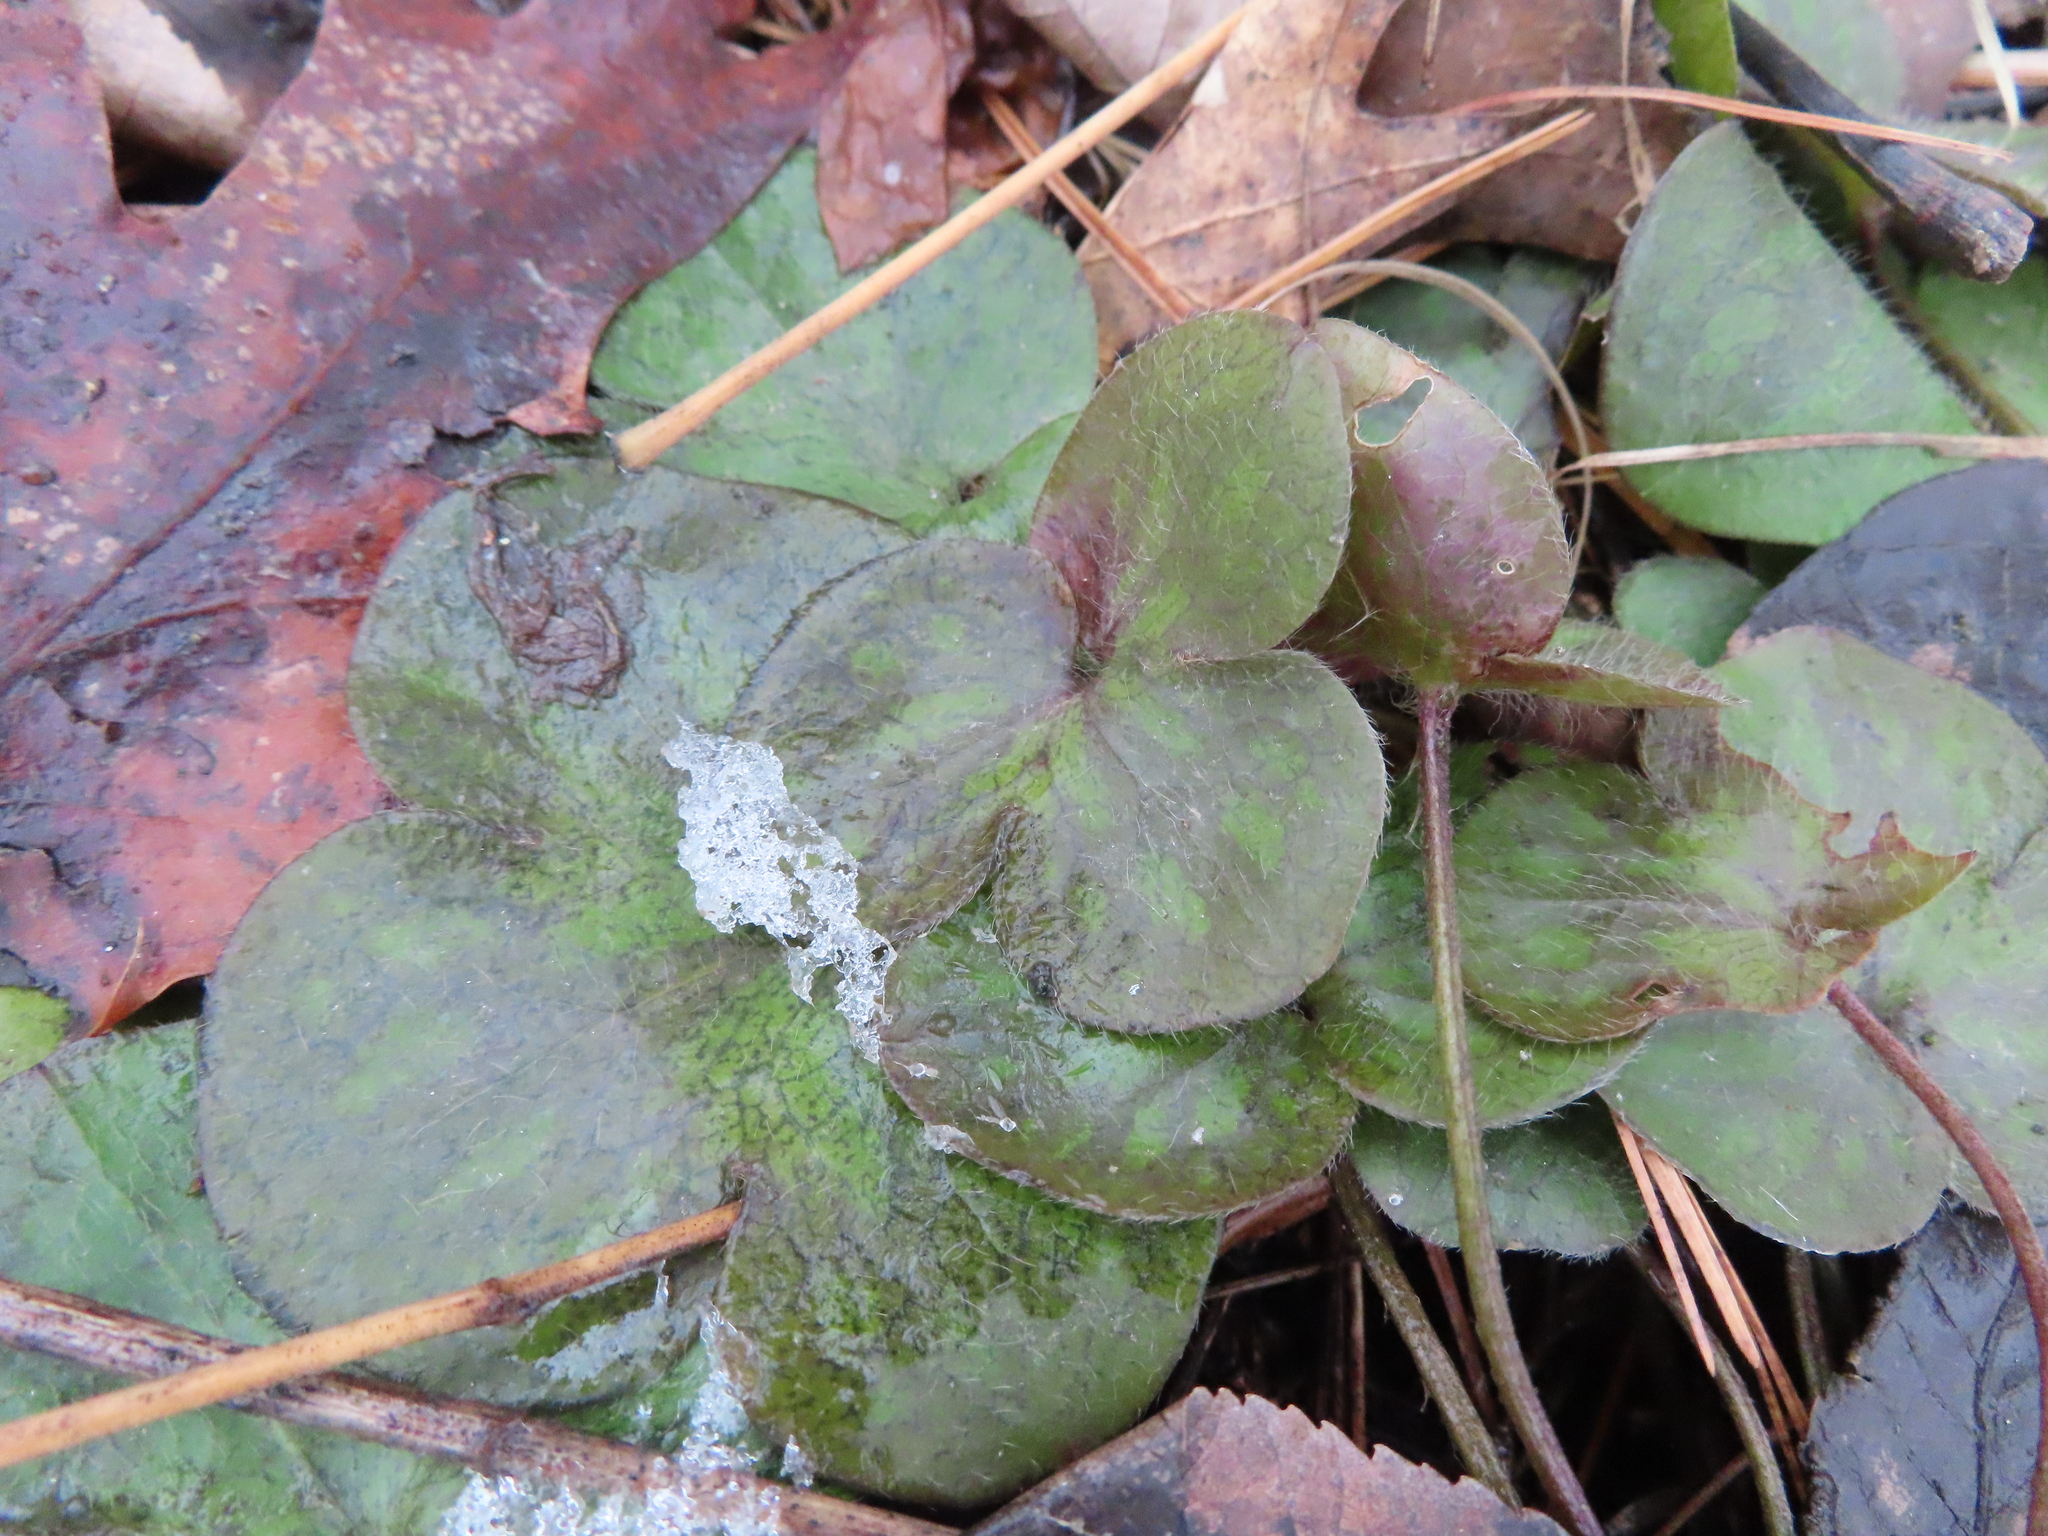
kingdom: Plantae
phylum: Tracheophyta
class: Magnoliopsida
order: Ranunculales
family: Ranunculaceae
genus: Hepatica
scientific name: Hepatica americana
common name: American hepatica
